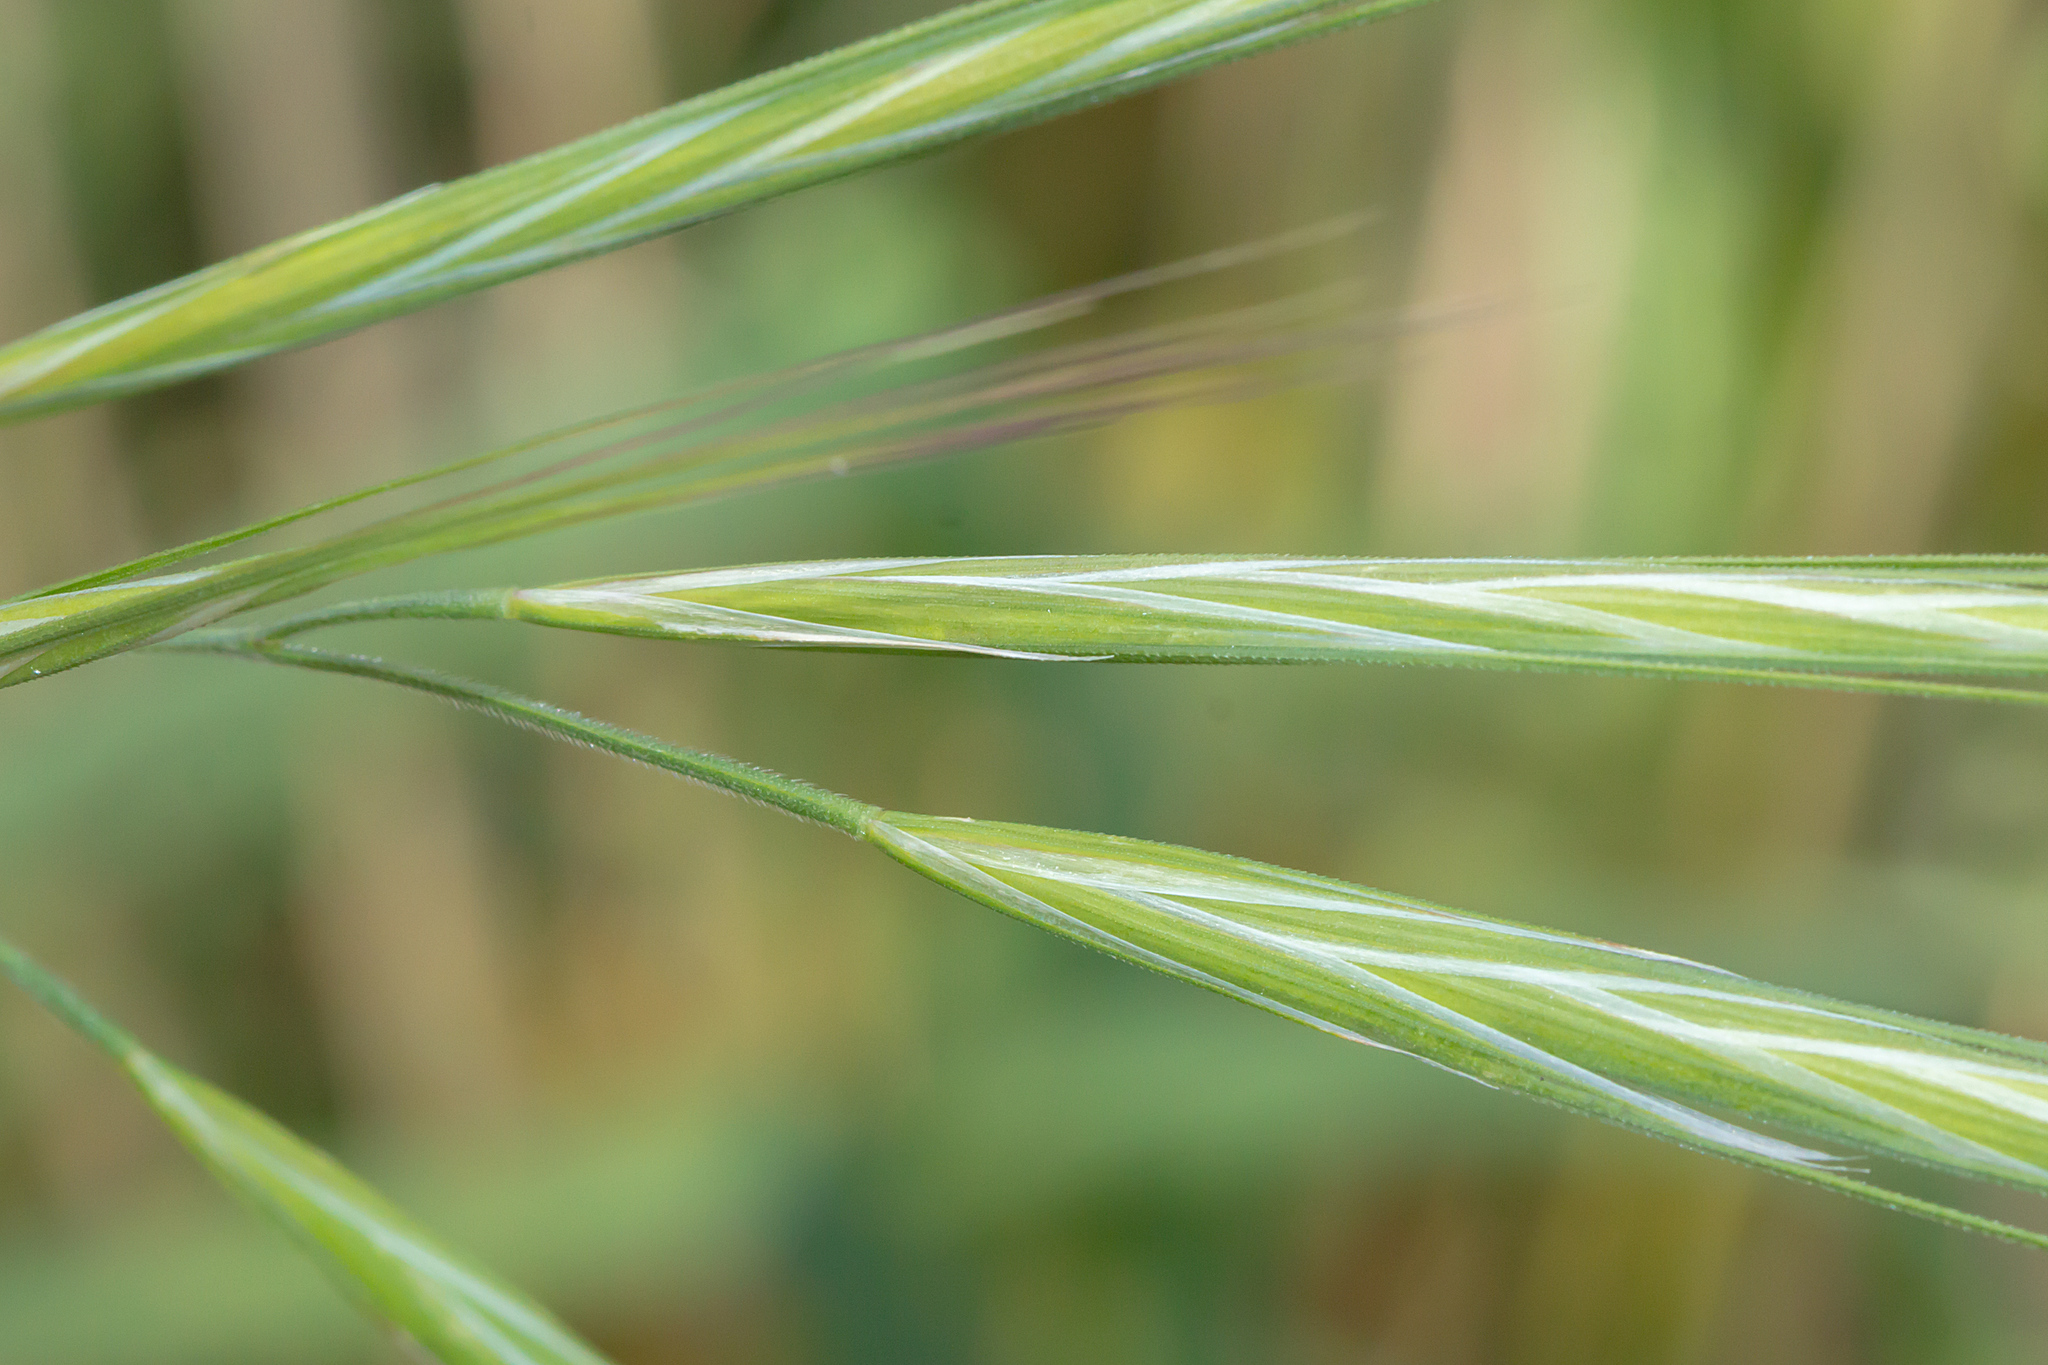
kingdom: Plantae
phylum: Tracheophyta
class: Liliopsida
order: Poales
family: Poaceae
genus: Bromus
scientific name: Bromus diandrus
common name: Ripgut brome
